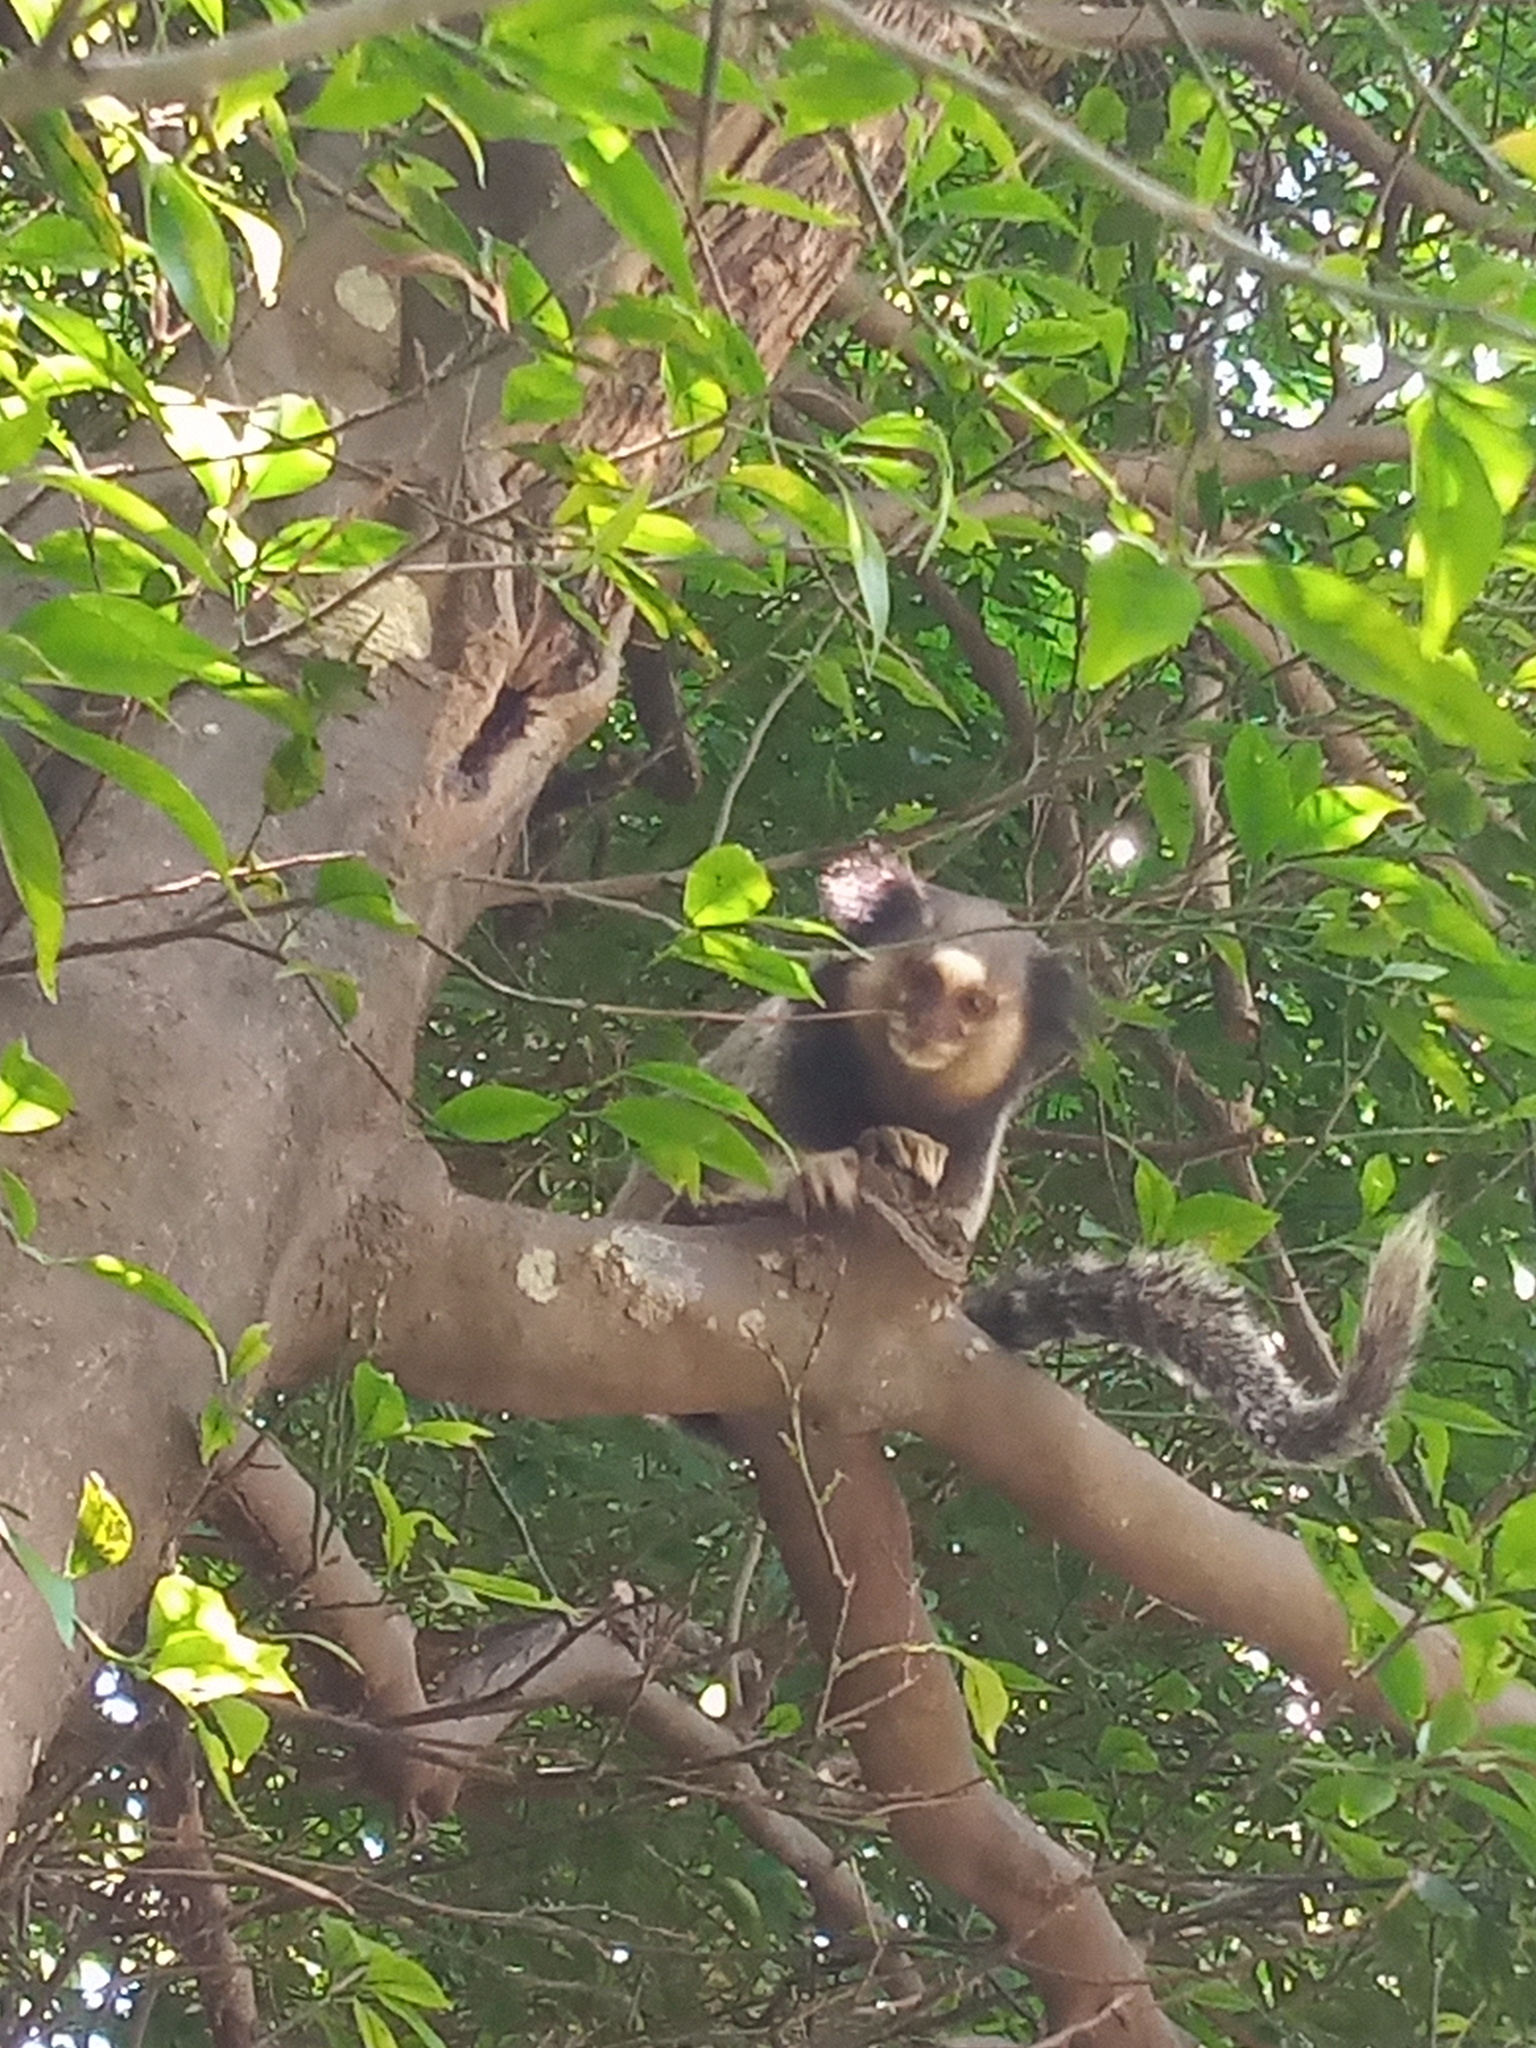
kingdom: Animalia
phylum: Chordata
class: Mammalia
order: Primates
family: Callitrichidae
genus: Callithrix
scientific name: Callithrix penicillata
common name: Black-tufted marmoset
